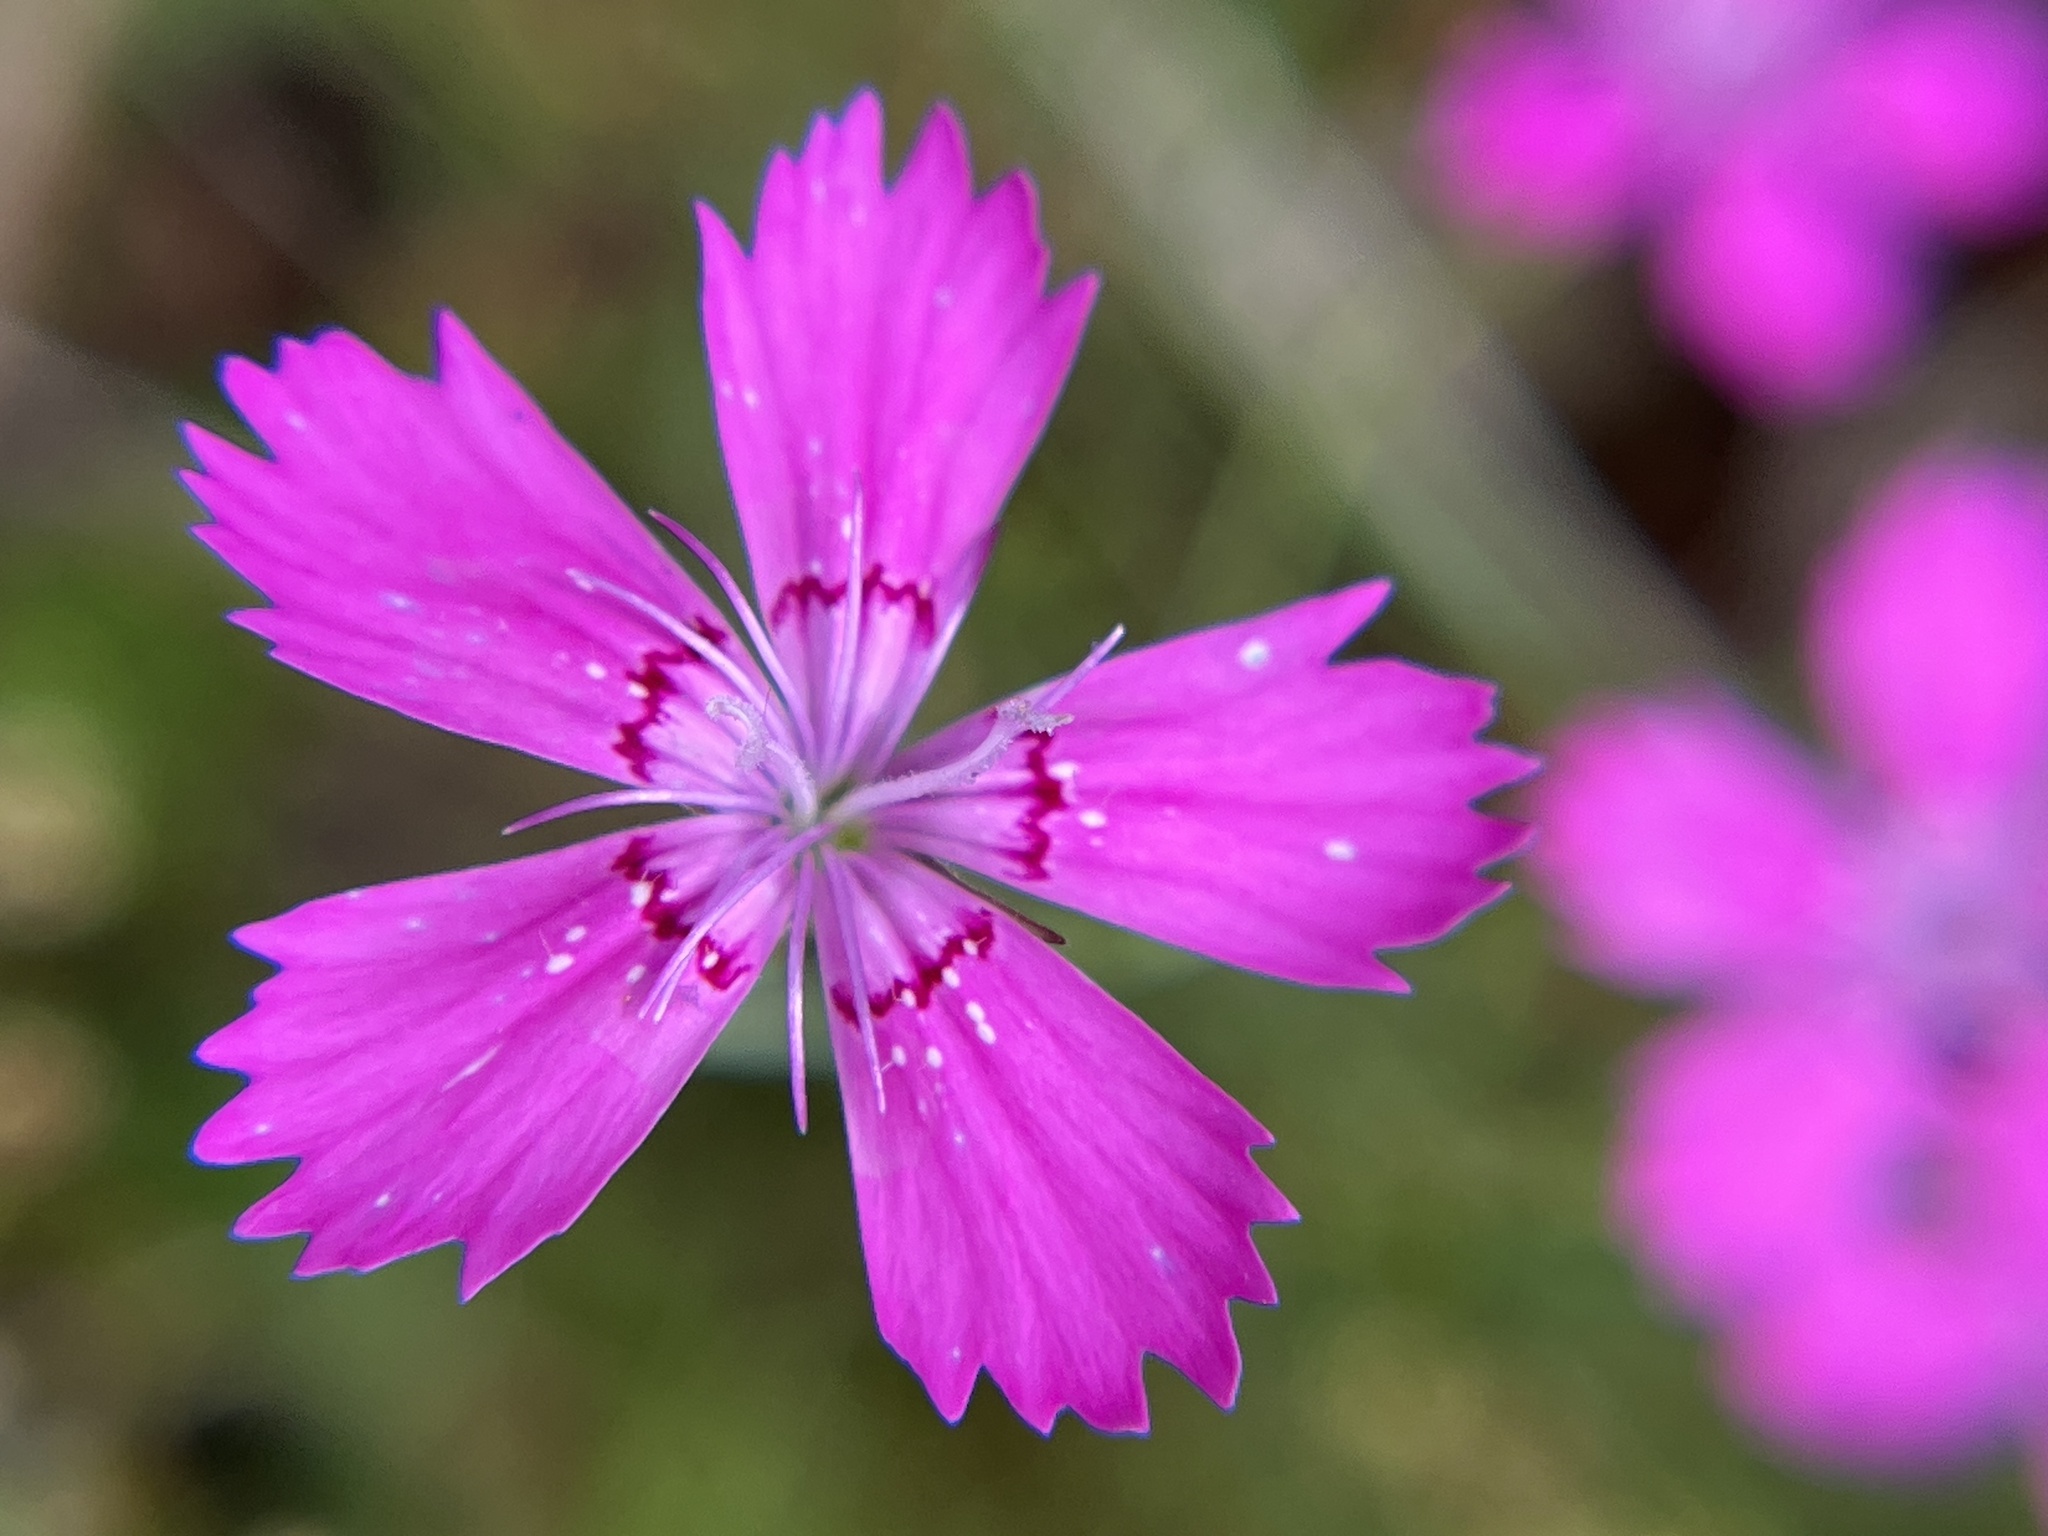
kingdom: Plantae
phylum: Tracheophyta
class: Magnoliopsida
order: Caryophyllales
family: Caryophyllaceae
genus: Dianthus
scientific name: Dianthus deltoides
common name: Maiden pink
